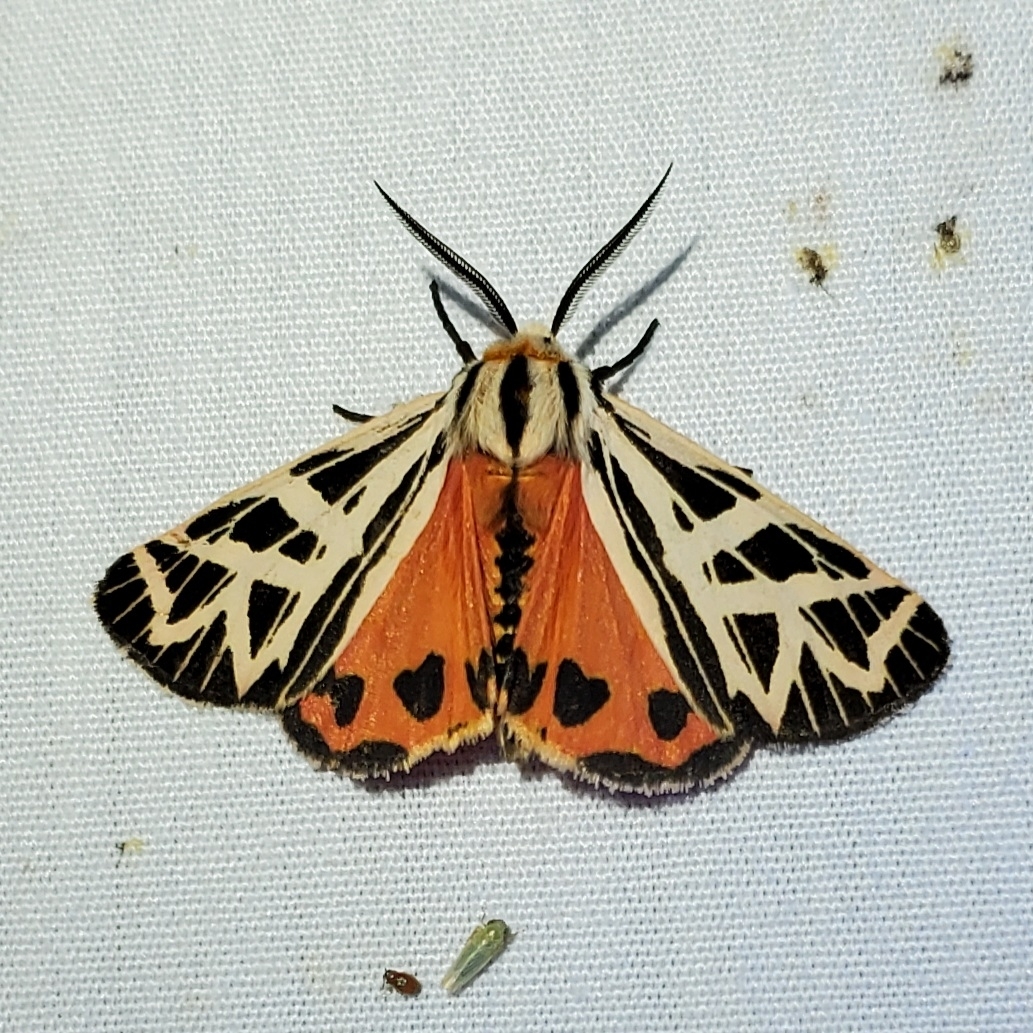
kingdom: Animalia
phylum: Arthropoda
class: Insecta
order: Lepidoptera
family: Erebidae
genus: Apantesis
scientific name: Apantesis
